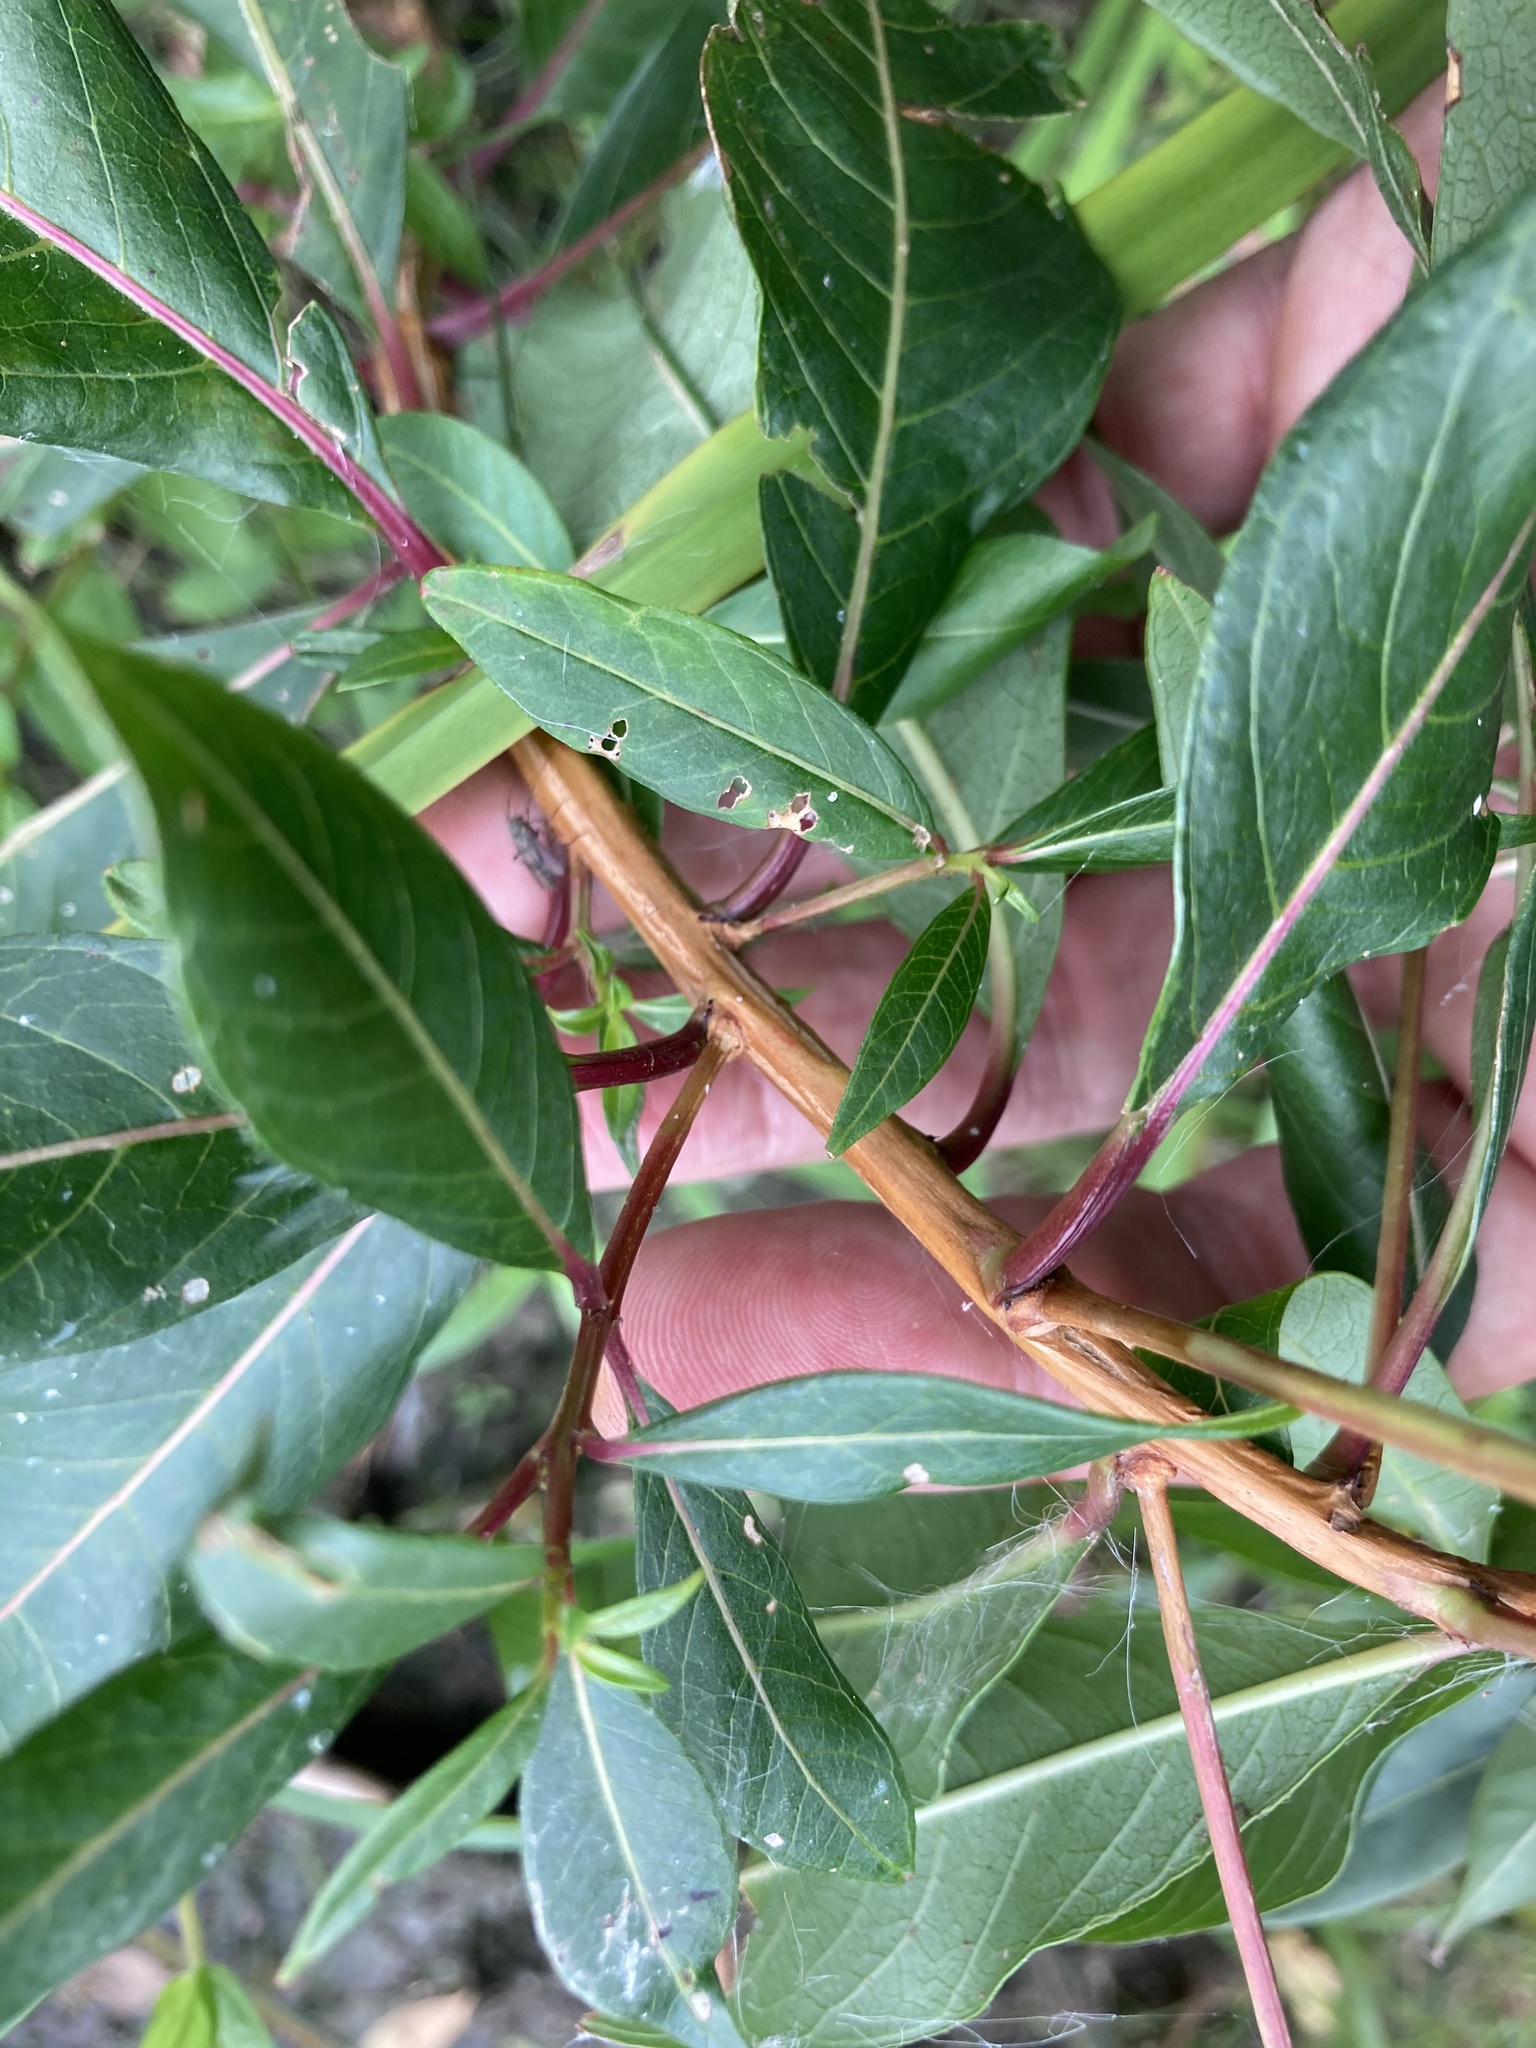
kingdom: Plantae
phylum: Tracheophyta
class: Magnoliopsida
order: Myrtales
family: Lythraceae
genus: Decodon
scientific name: Decodon verticillatus
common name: Hairy swamp loosestrife
